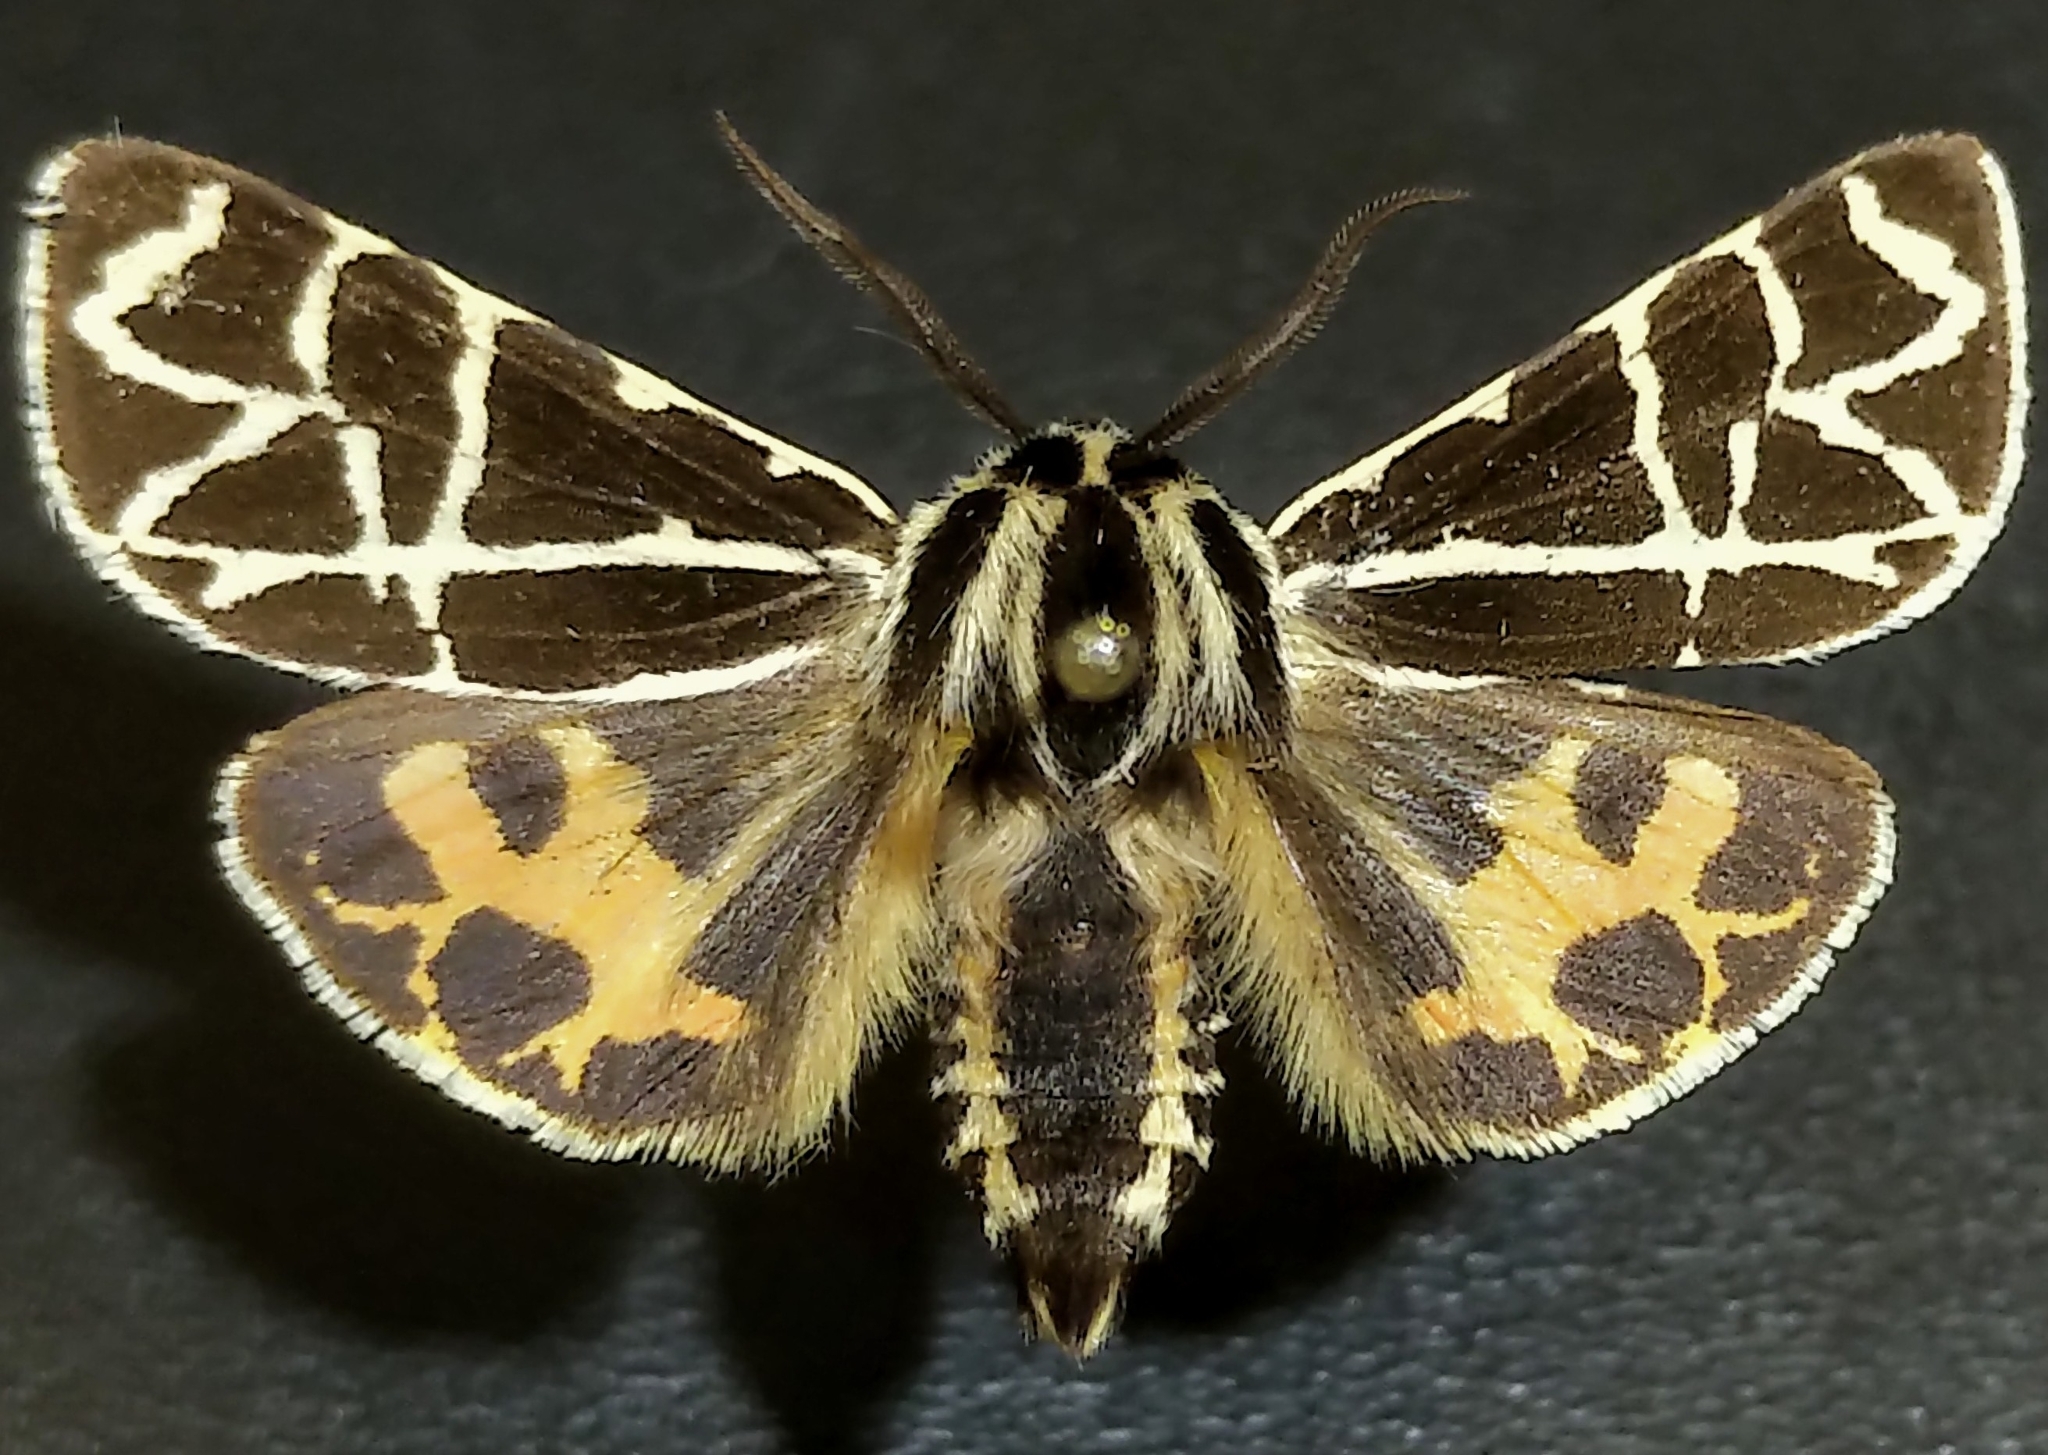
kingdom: Animalia
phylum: Arthropoda
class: Insecta
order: Lepidoptera
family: Erebidae
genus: Apantesis
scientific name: Apantesis
